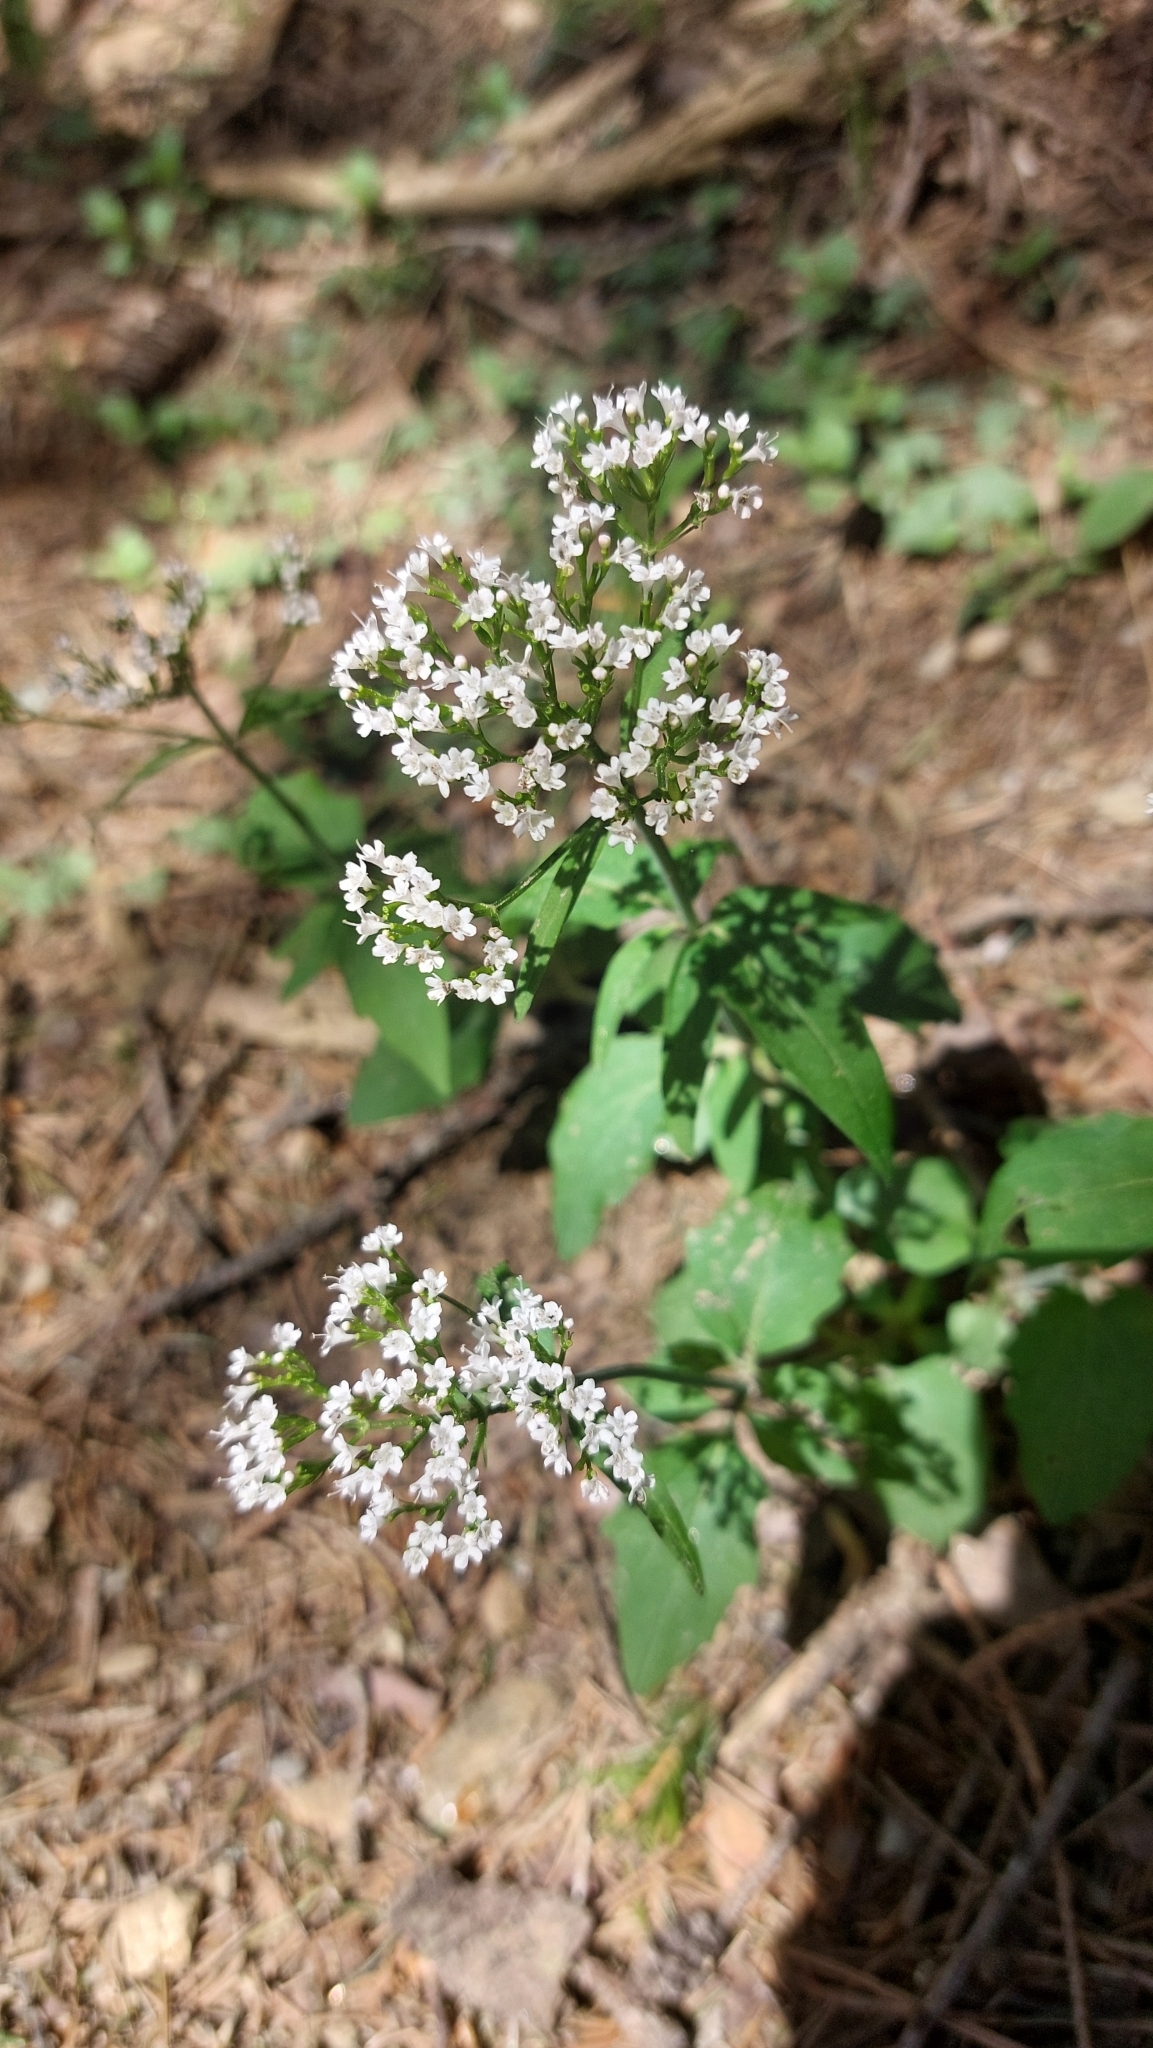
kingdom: Plantae
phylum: Tracheophyta
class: Magnoliopsida
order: Dipsacales
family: Caprifoliaceae
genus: Valeriana
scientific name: Valeriana tripteris
